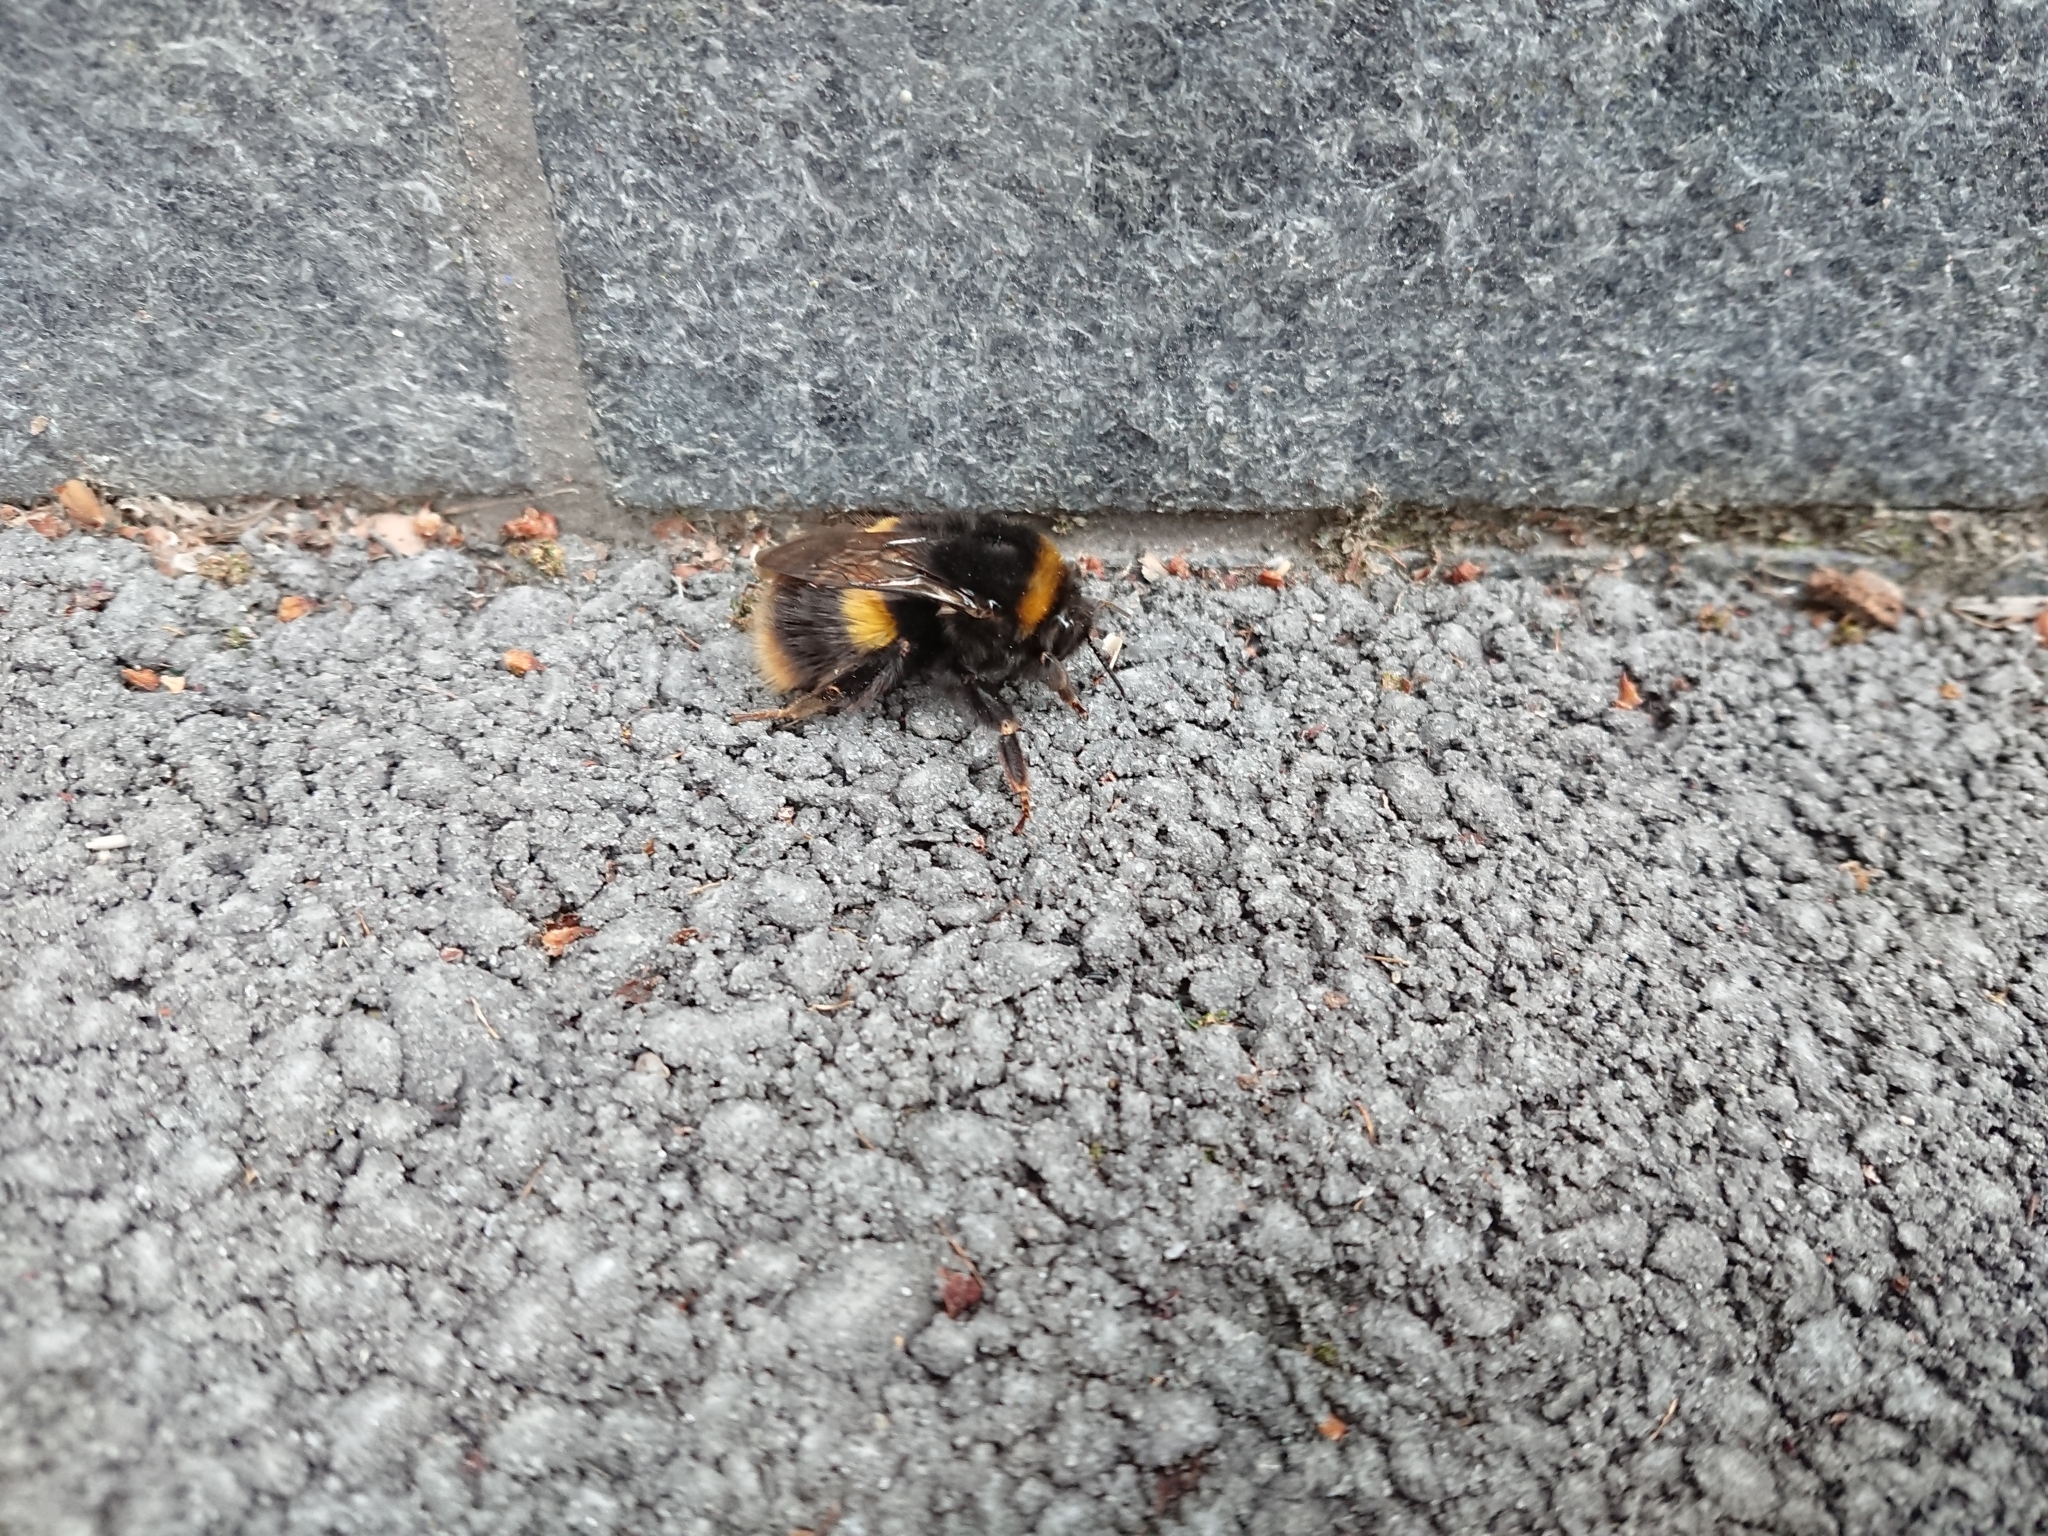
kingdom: Animalia
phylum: Arthropoda
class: Insecta
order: Hymenoptera
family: Apidae
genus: Bombus
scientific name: Bombus terrestris
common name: Buff-tailed bumblebee
